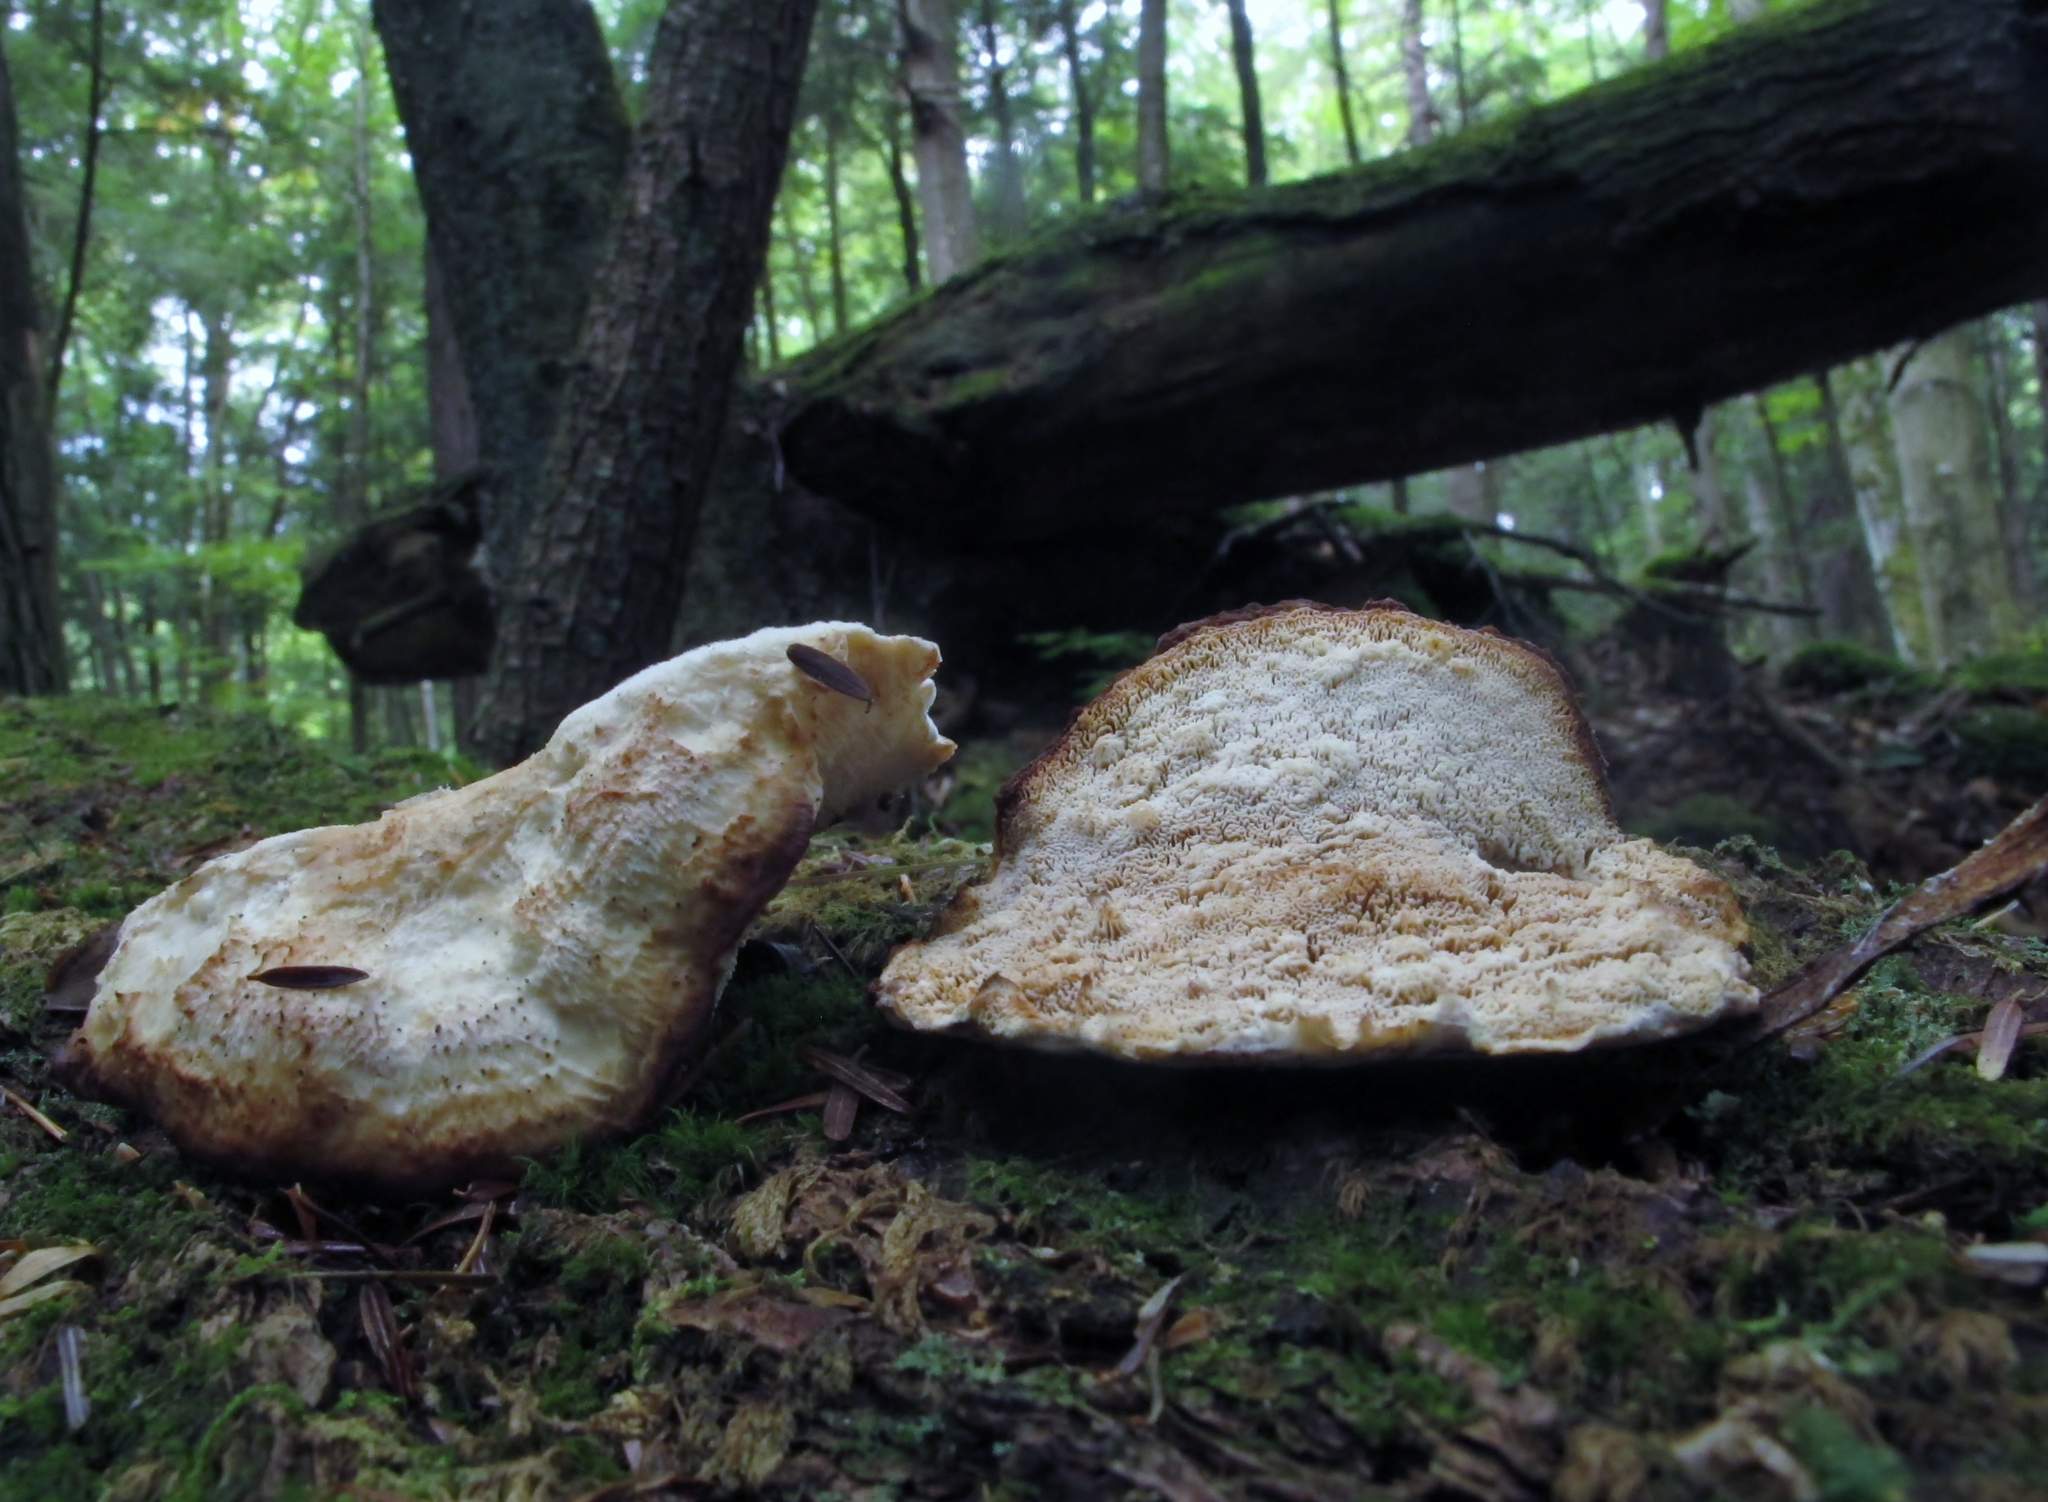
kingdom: Fungi
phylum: Basidiomycota
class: Agaricomycetes
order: Polyporales
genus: Fuscopostia
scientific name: Fuscopostia fragilis
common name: Brown-staining cheese polypore
